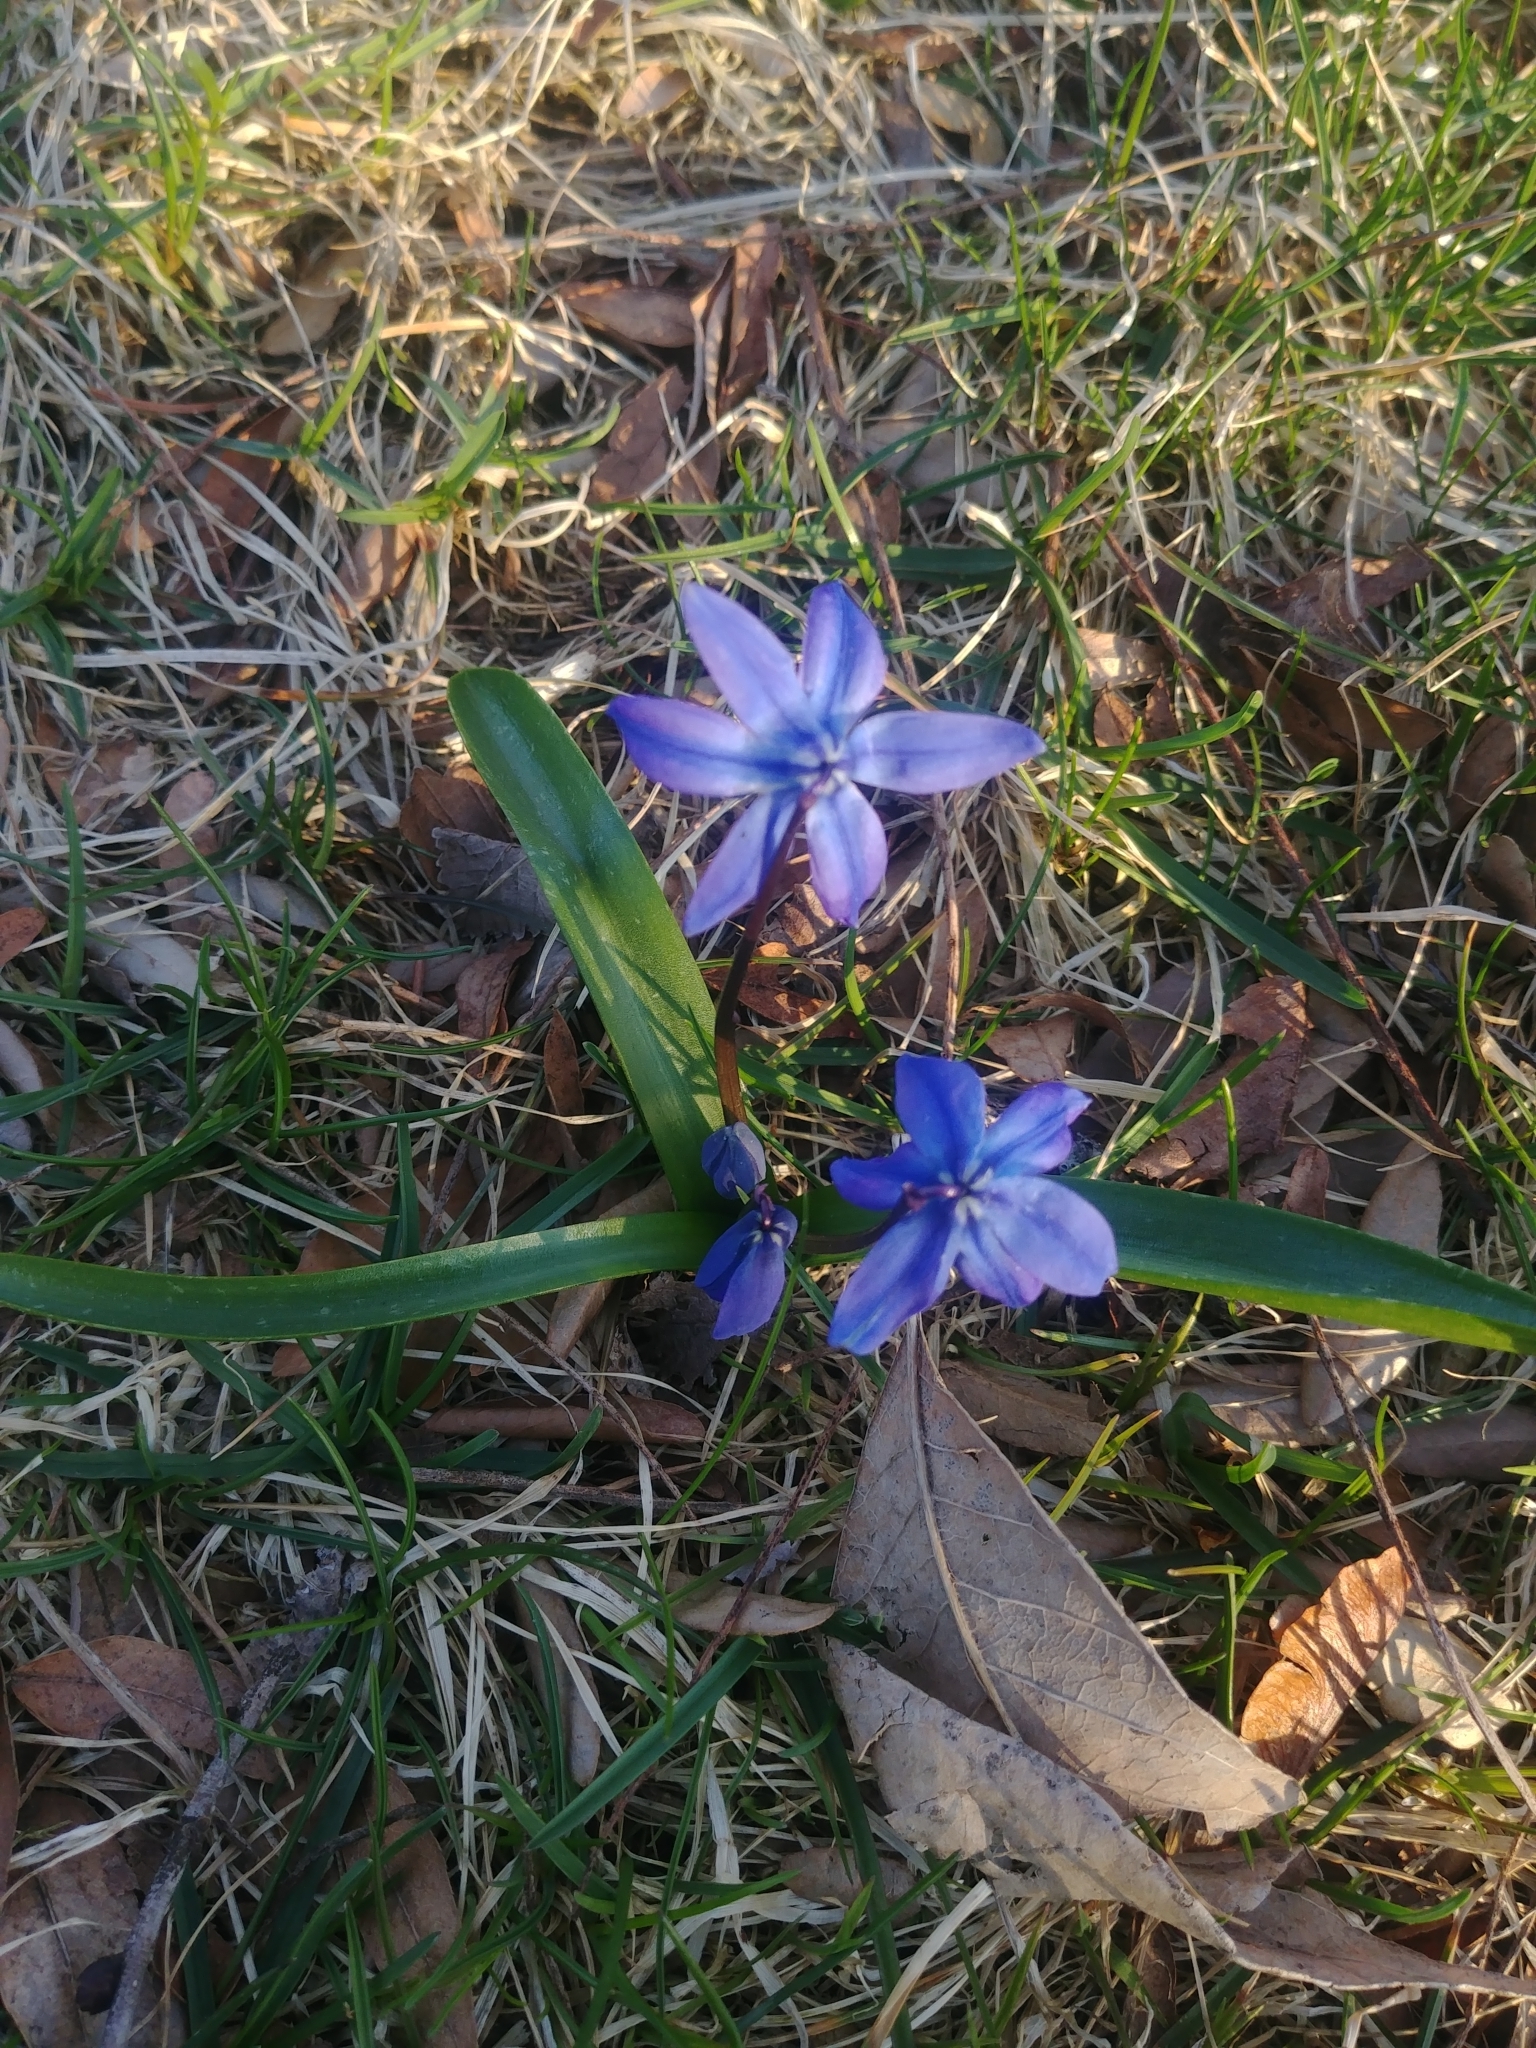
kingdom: Plantae
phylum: Tracheophyta
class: Liliopsida
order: Asparagales
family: Asparagaceae
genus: Scilla
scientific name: Scilla siberica
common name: Siberian squill
